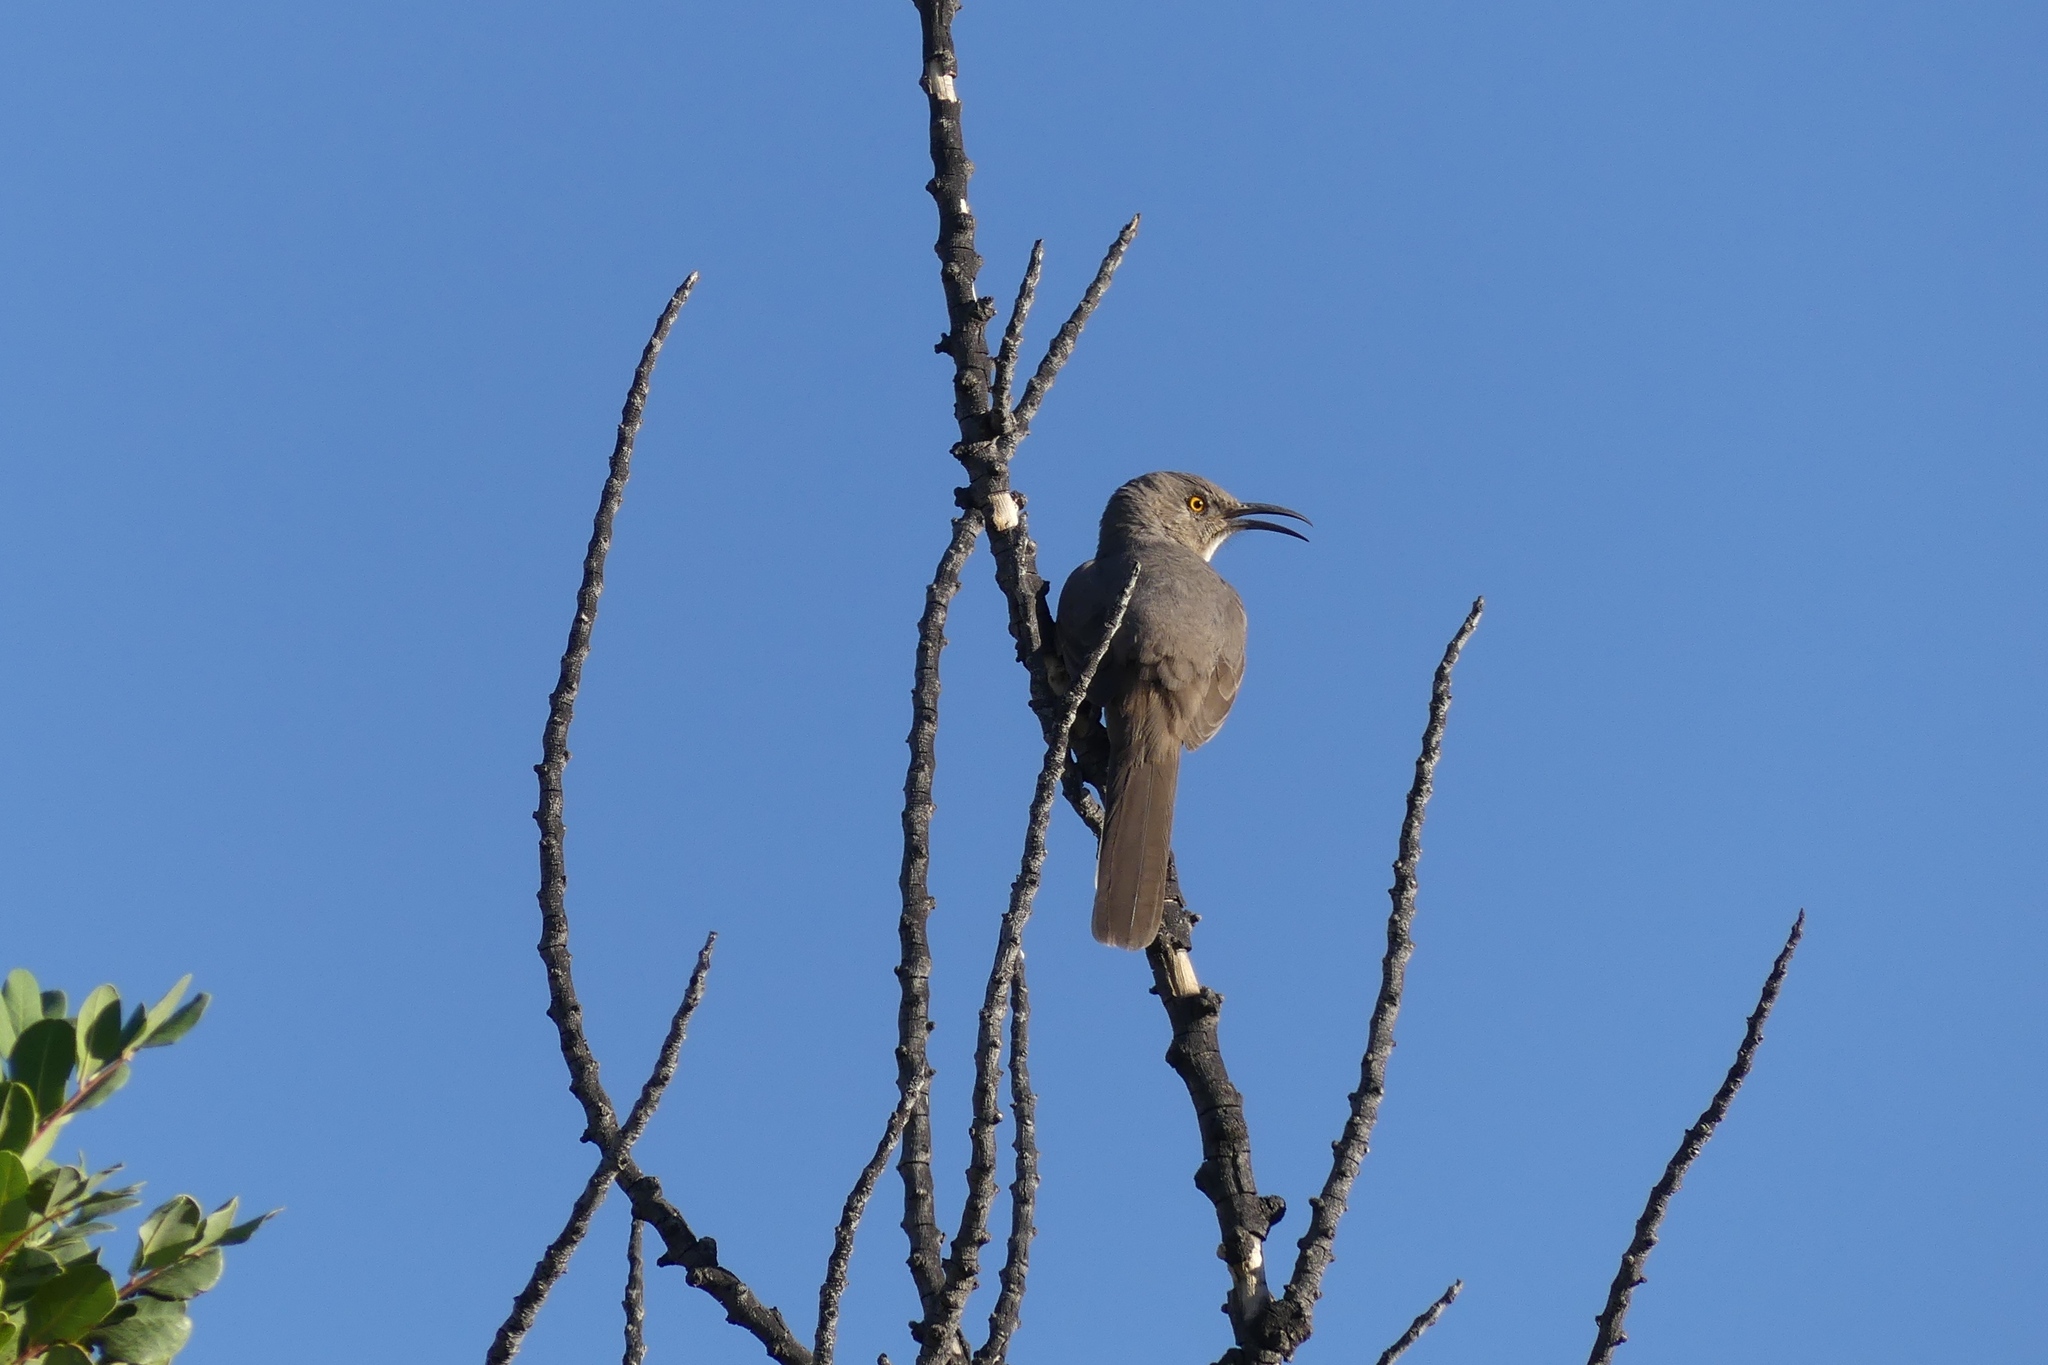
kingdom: Animalia
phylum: Chordata
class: Aves
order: Passeriformes
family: Mimidae
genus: Toxostoma
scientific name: Toxostoma curvirostre
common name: Curve-billed thrasher
